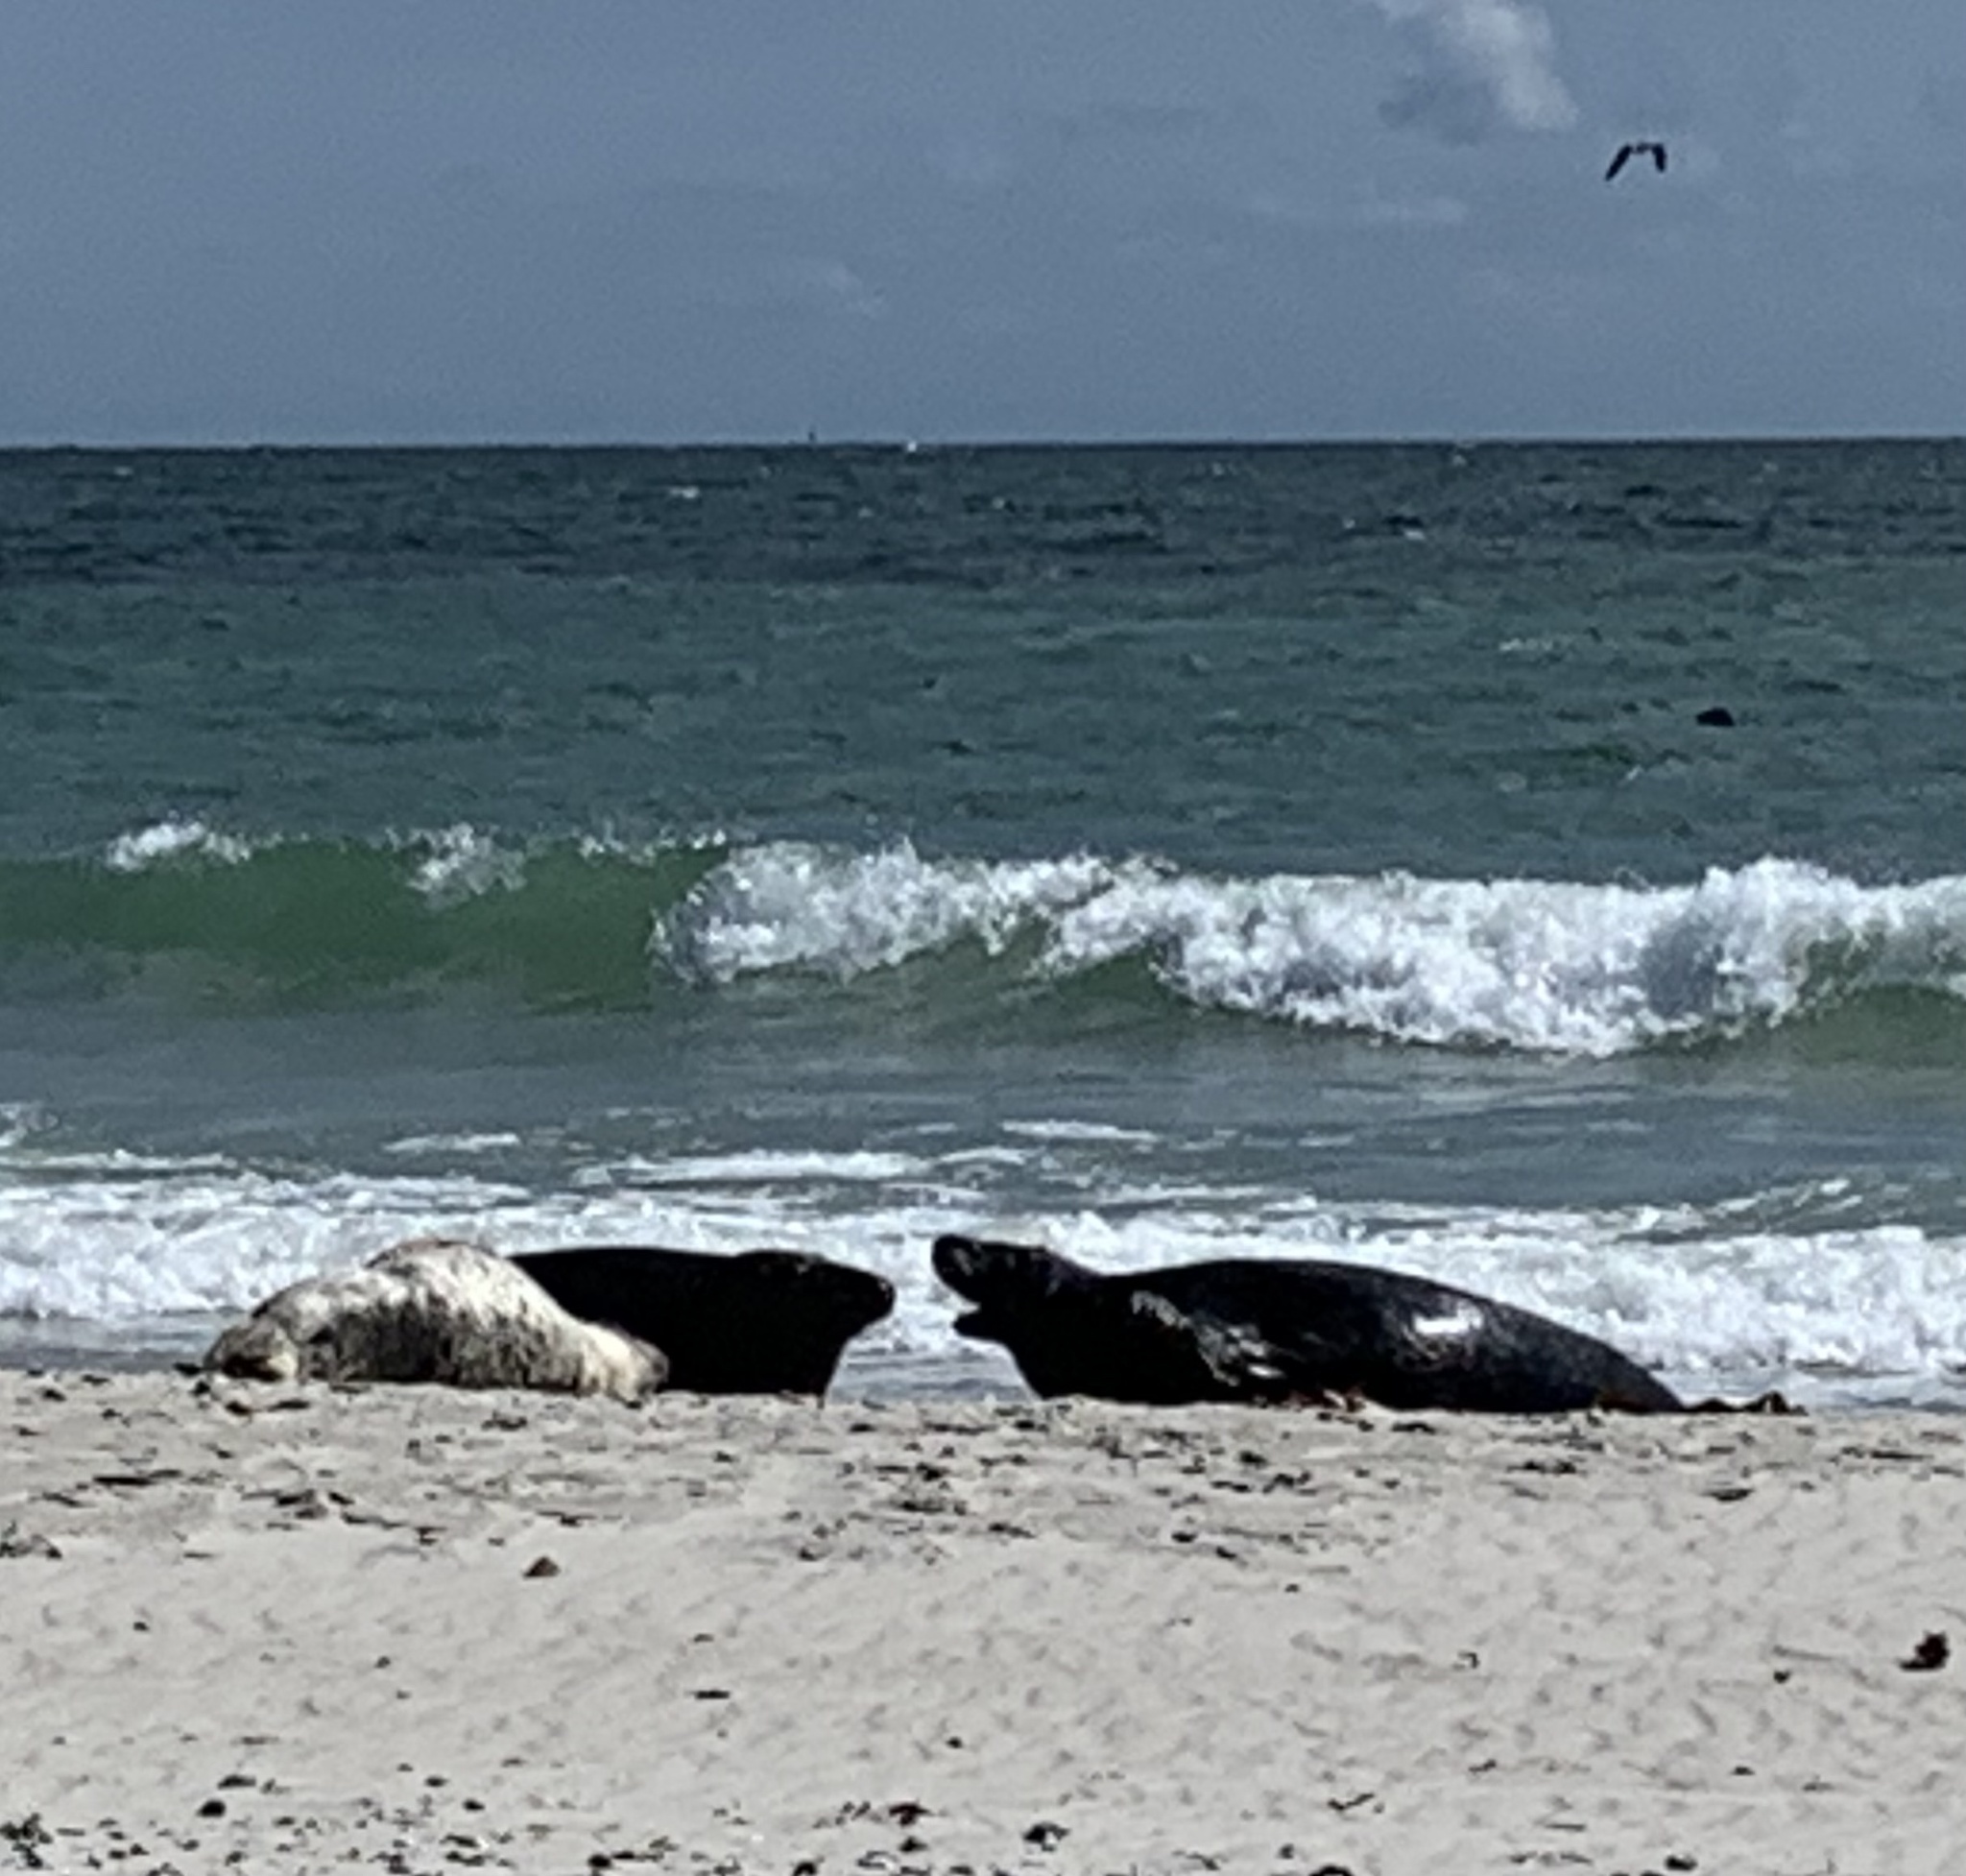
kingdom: Animalia
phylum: Chordata
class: Mammalia
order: Carnivora
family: Phocidae
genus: Halichoerus
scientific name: Halichoerus grypus
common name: Grey seal
